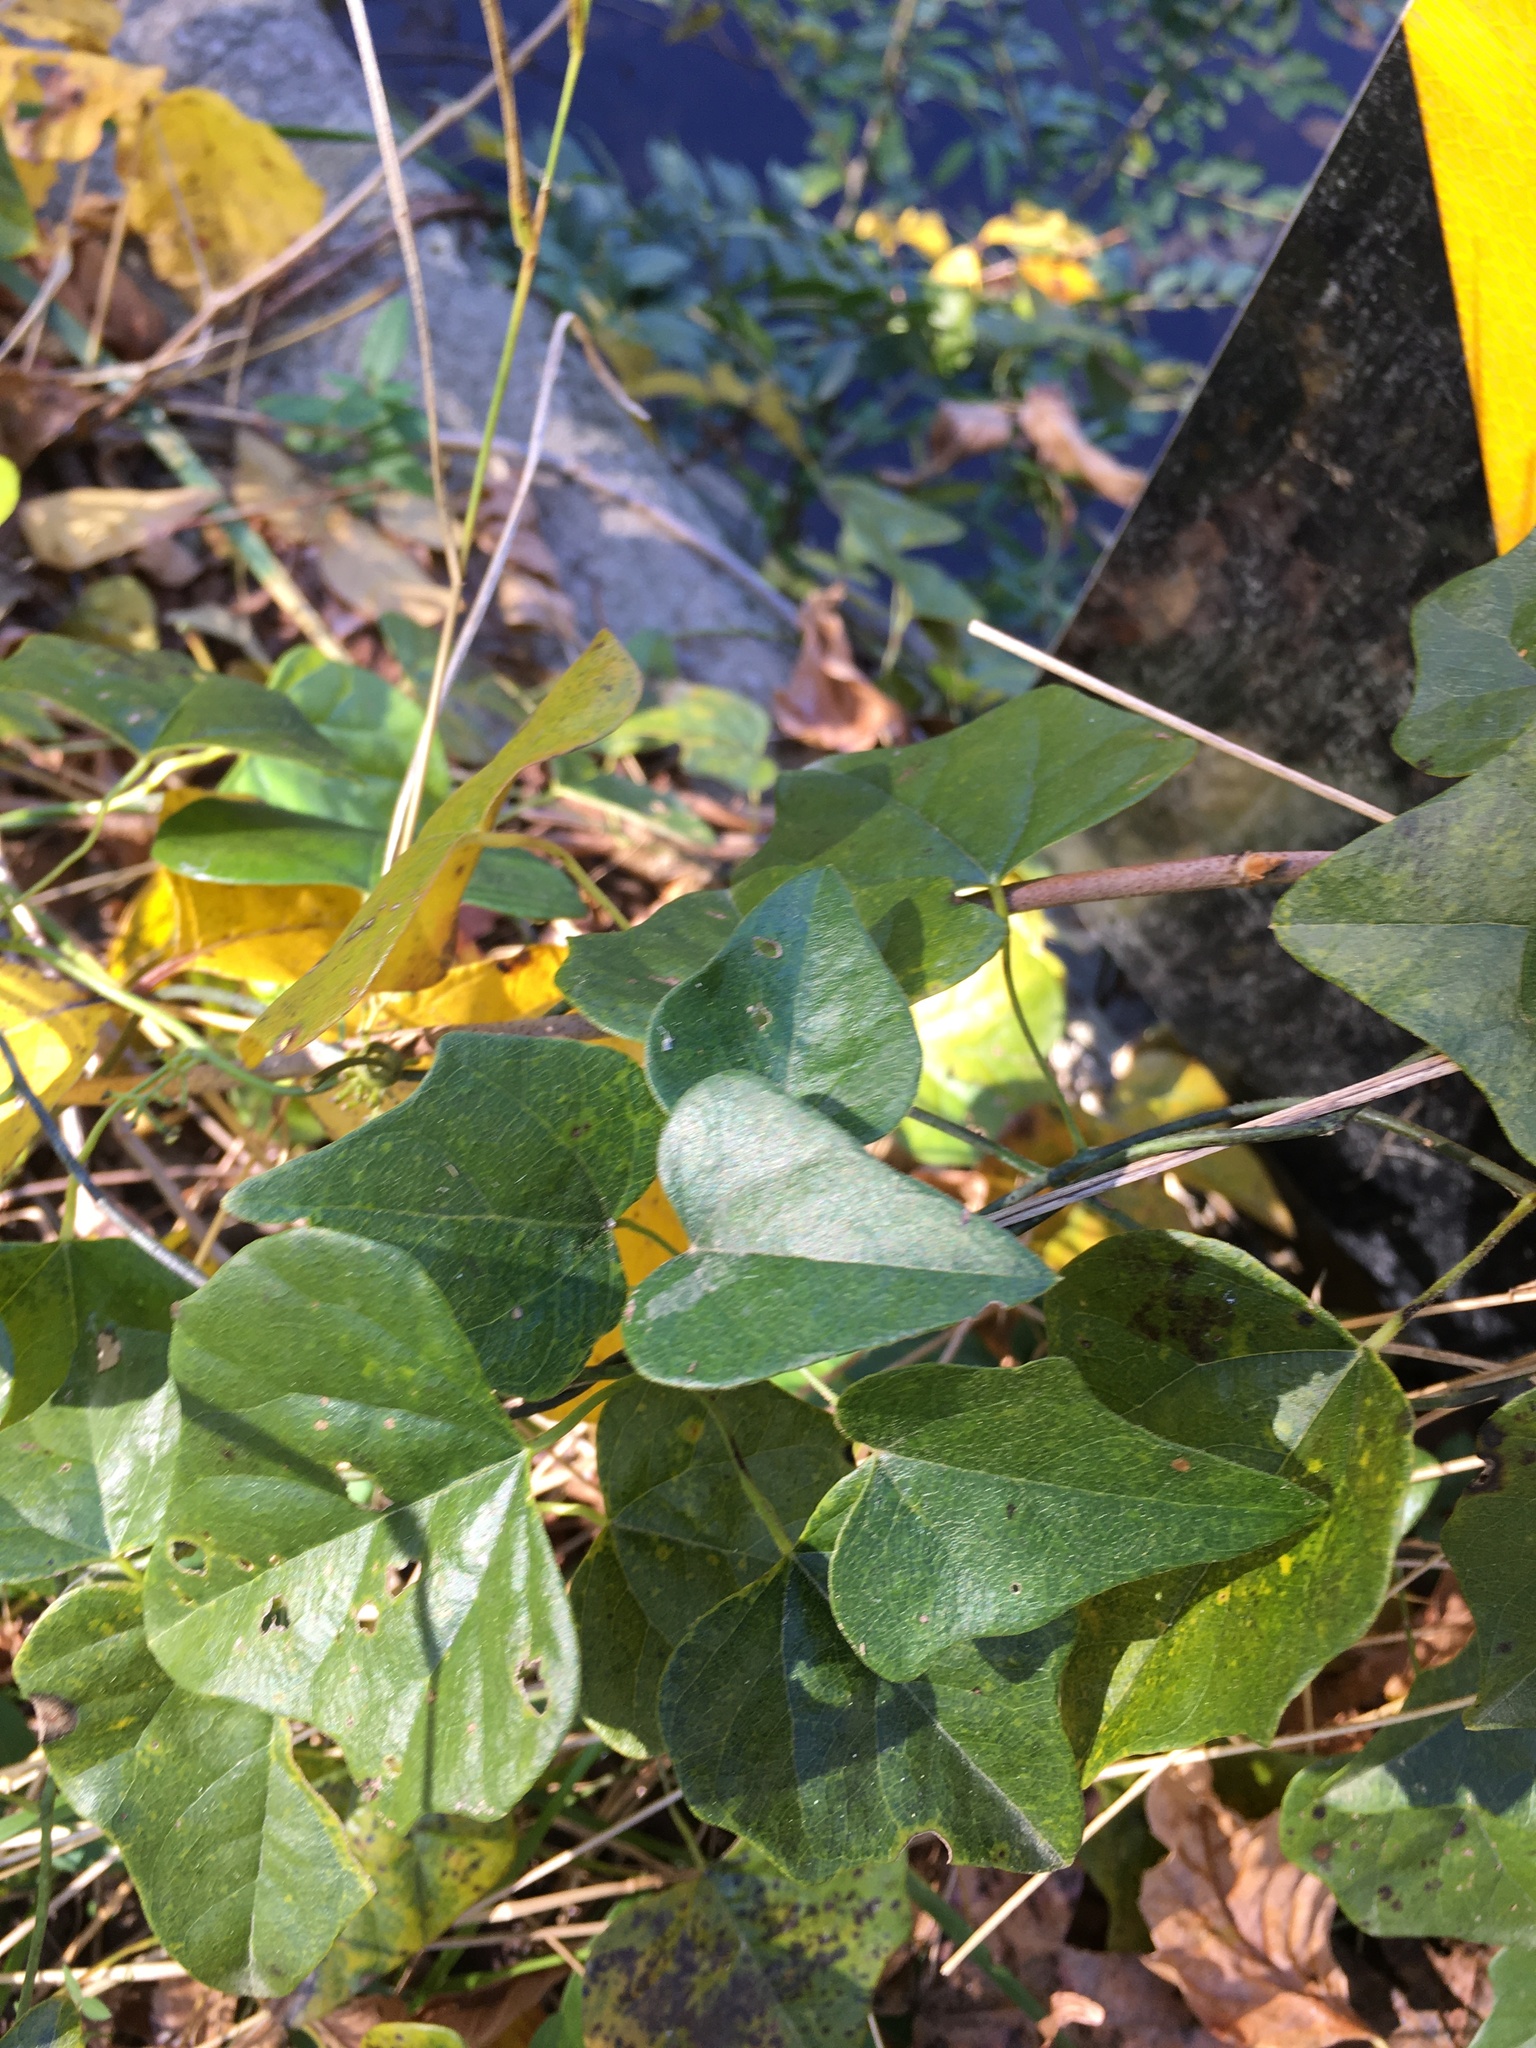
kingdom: Plantae
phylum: Tracheophyta
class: Magnoliopsida
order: Ranunculales
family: Menispermaceae
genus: Cocculus
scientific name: Cocculus carolinus
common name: Carolina moonseed
